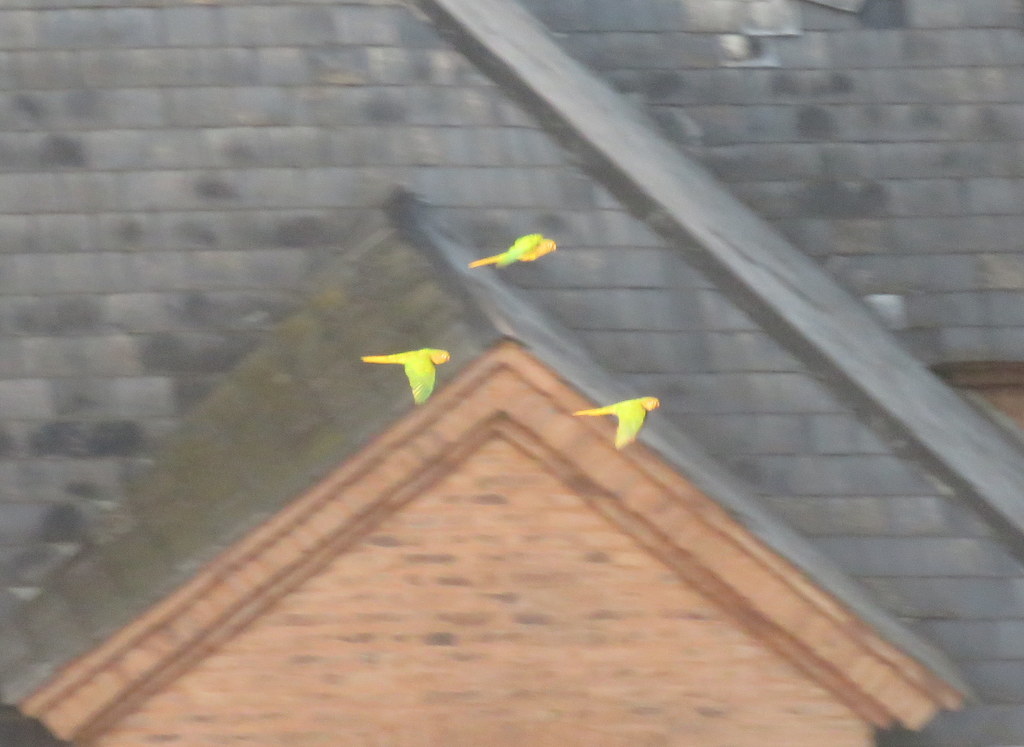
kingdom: Animalia
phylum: Chordata
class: Aves
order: Psittaciformes
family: Psittacidae
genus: Pyrrhura
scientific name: Pyrrhura frontalis
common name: Maroon-bellied parakeet
